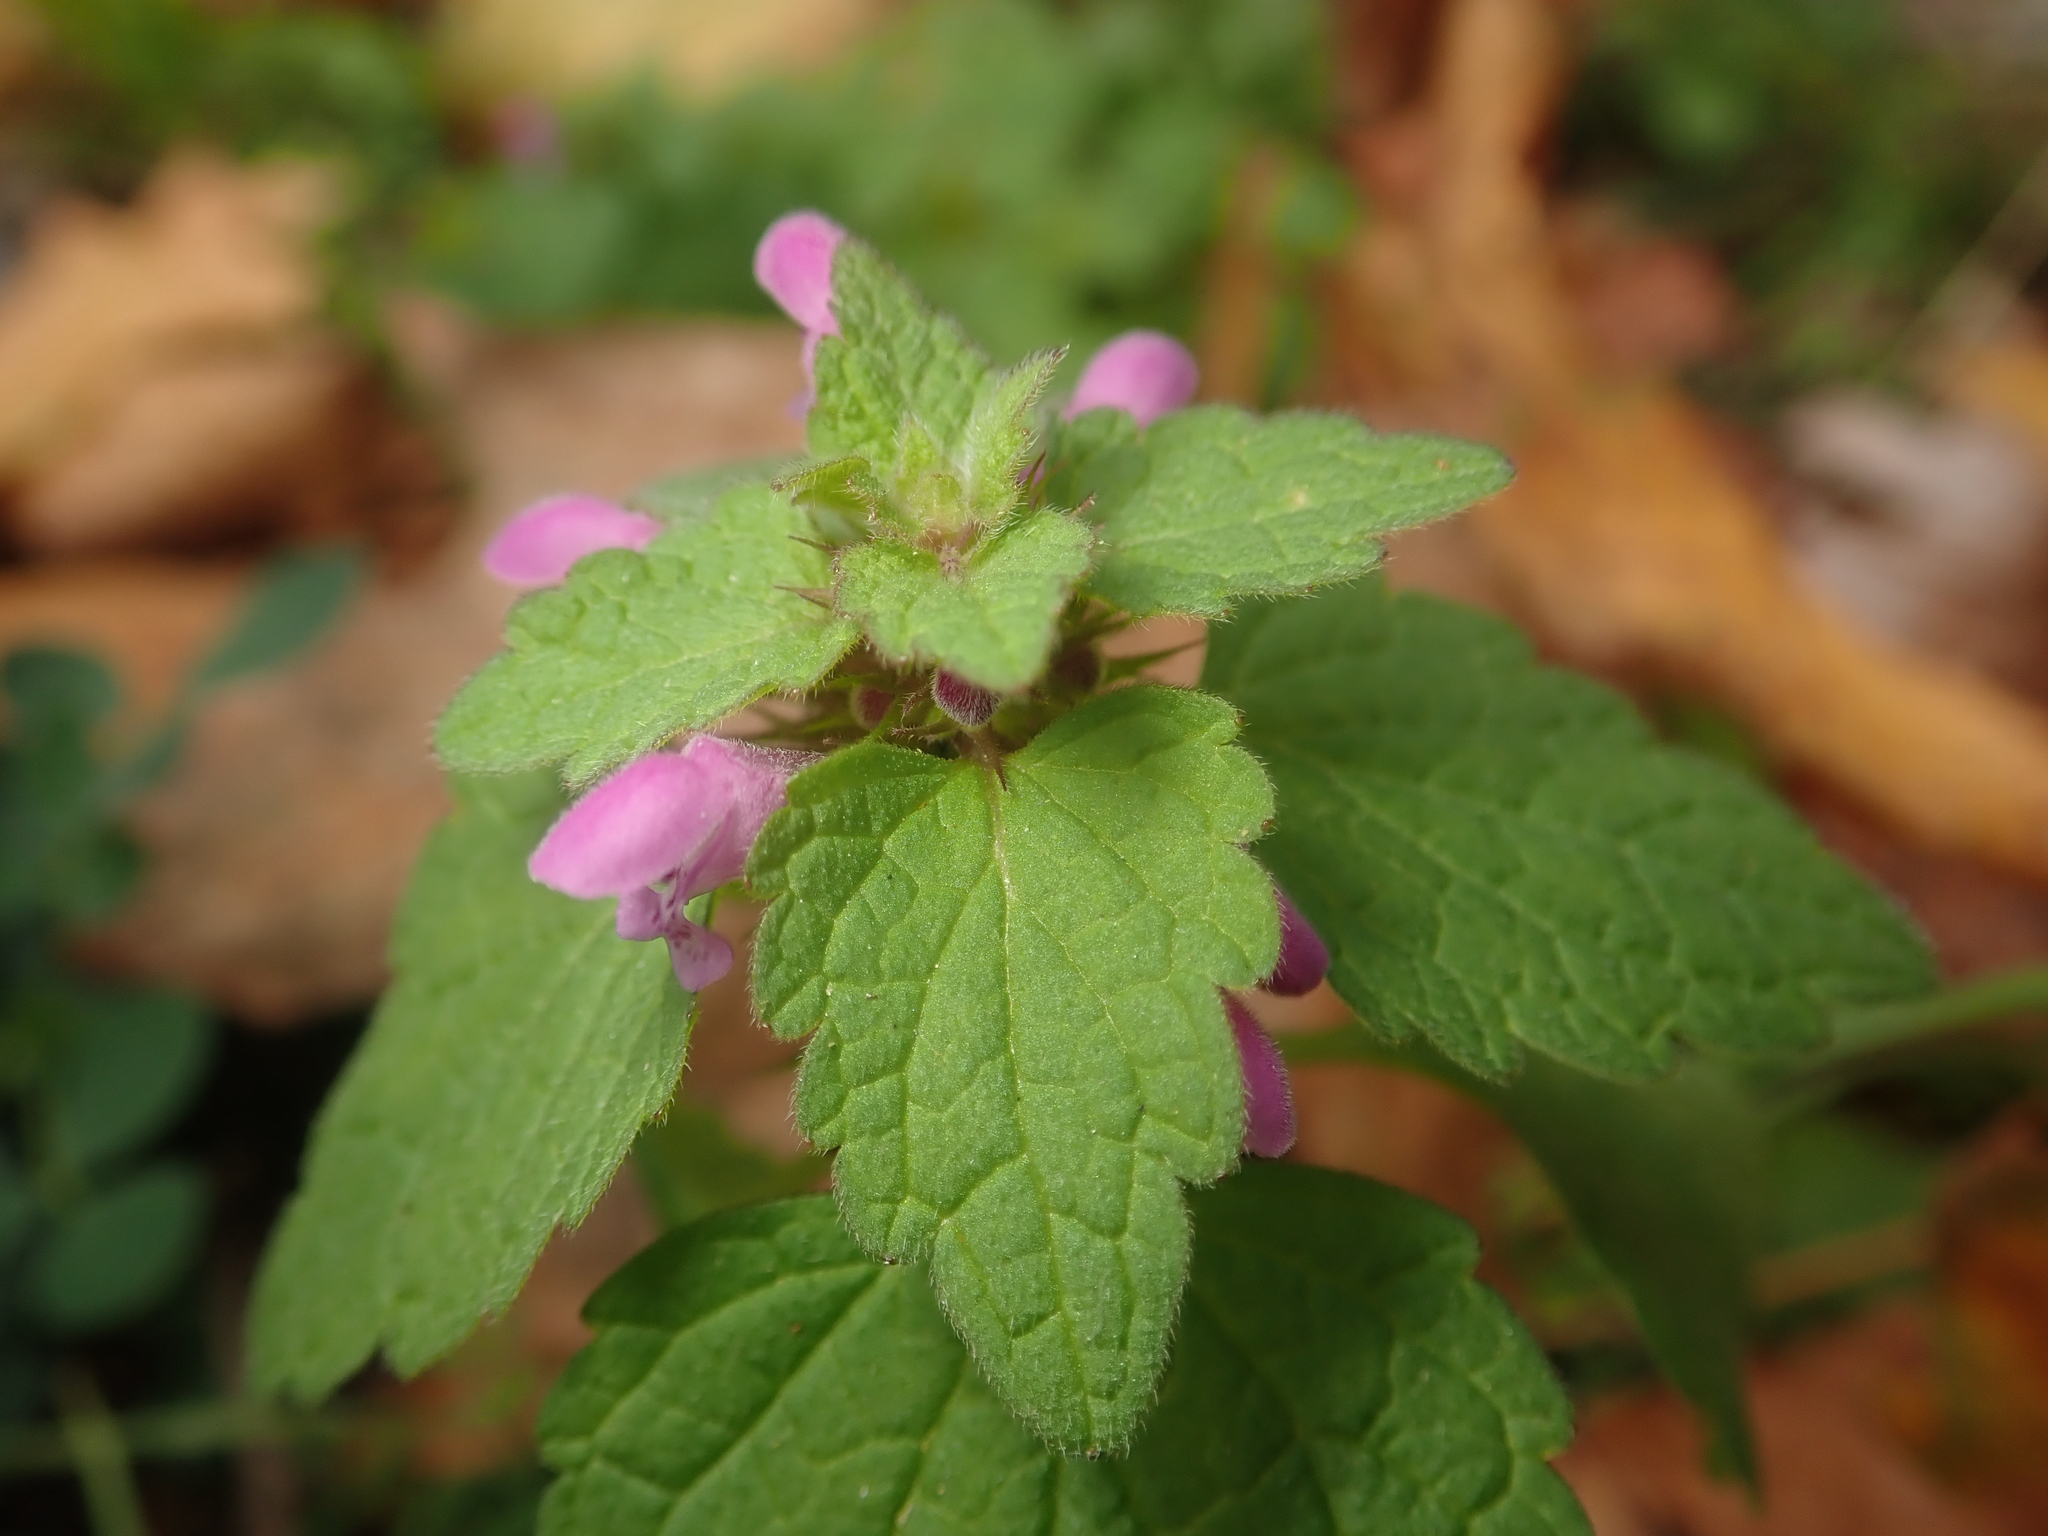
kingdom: Plantae
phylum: Tracheophyta
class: Magnoliopsida
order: Lamiales
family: Lamiaceae
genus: Lamium
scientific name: Lamium purpureum
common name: Red dead-nettle
